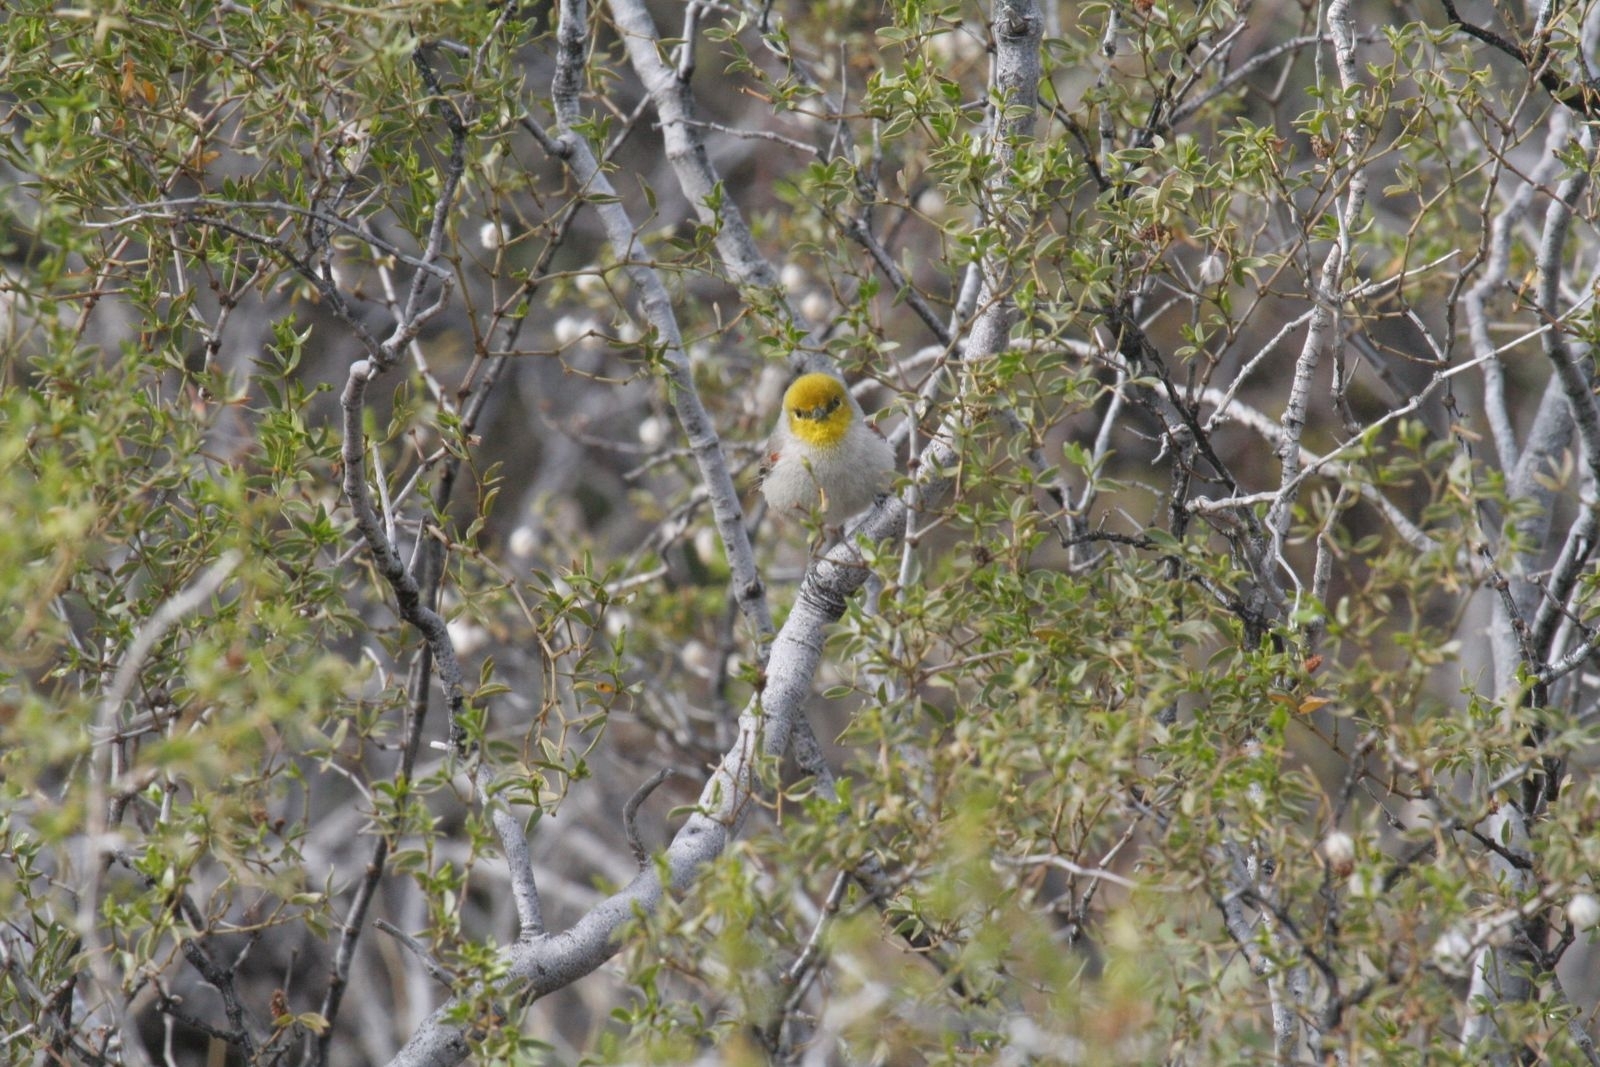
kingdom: Animalia
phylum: Chordata
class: Aves
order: Passeriformes
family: Remizidae
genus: Auriparus
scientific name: Auriparus flaviceps
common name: Verdin
